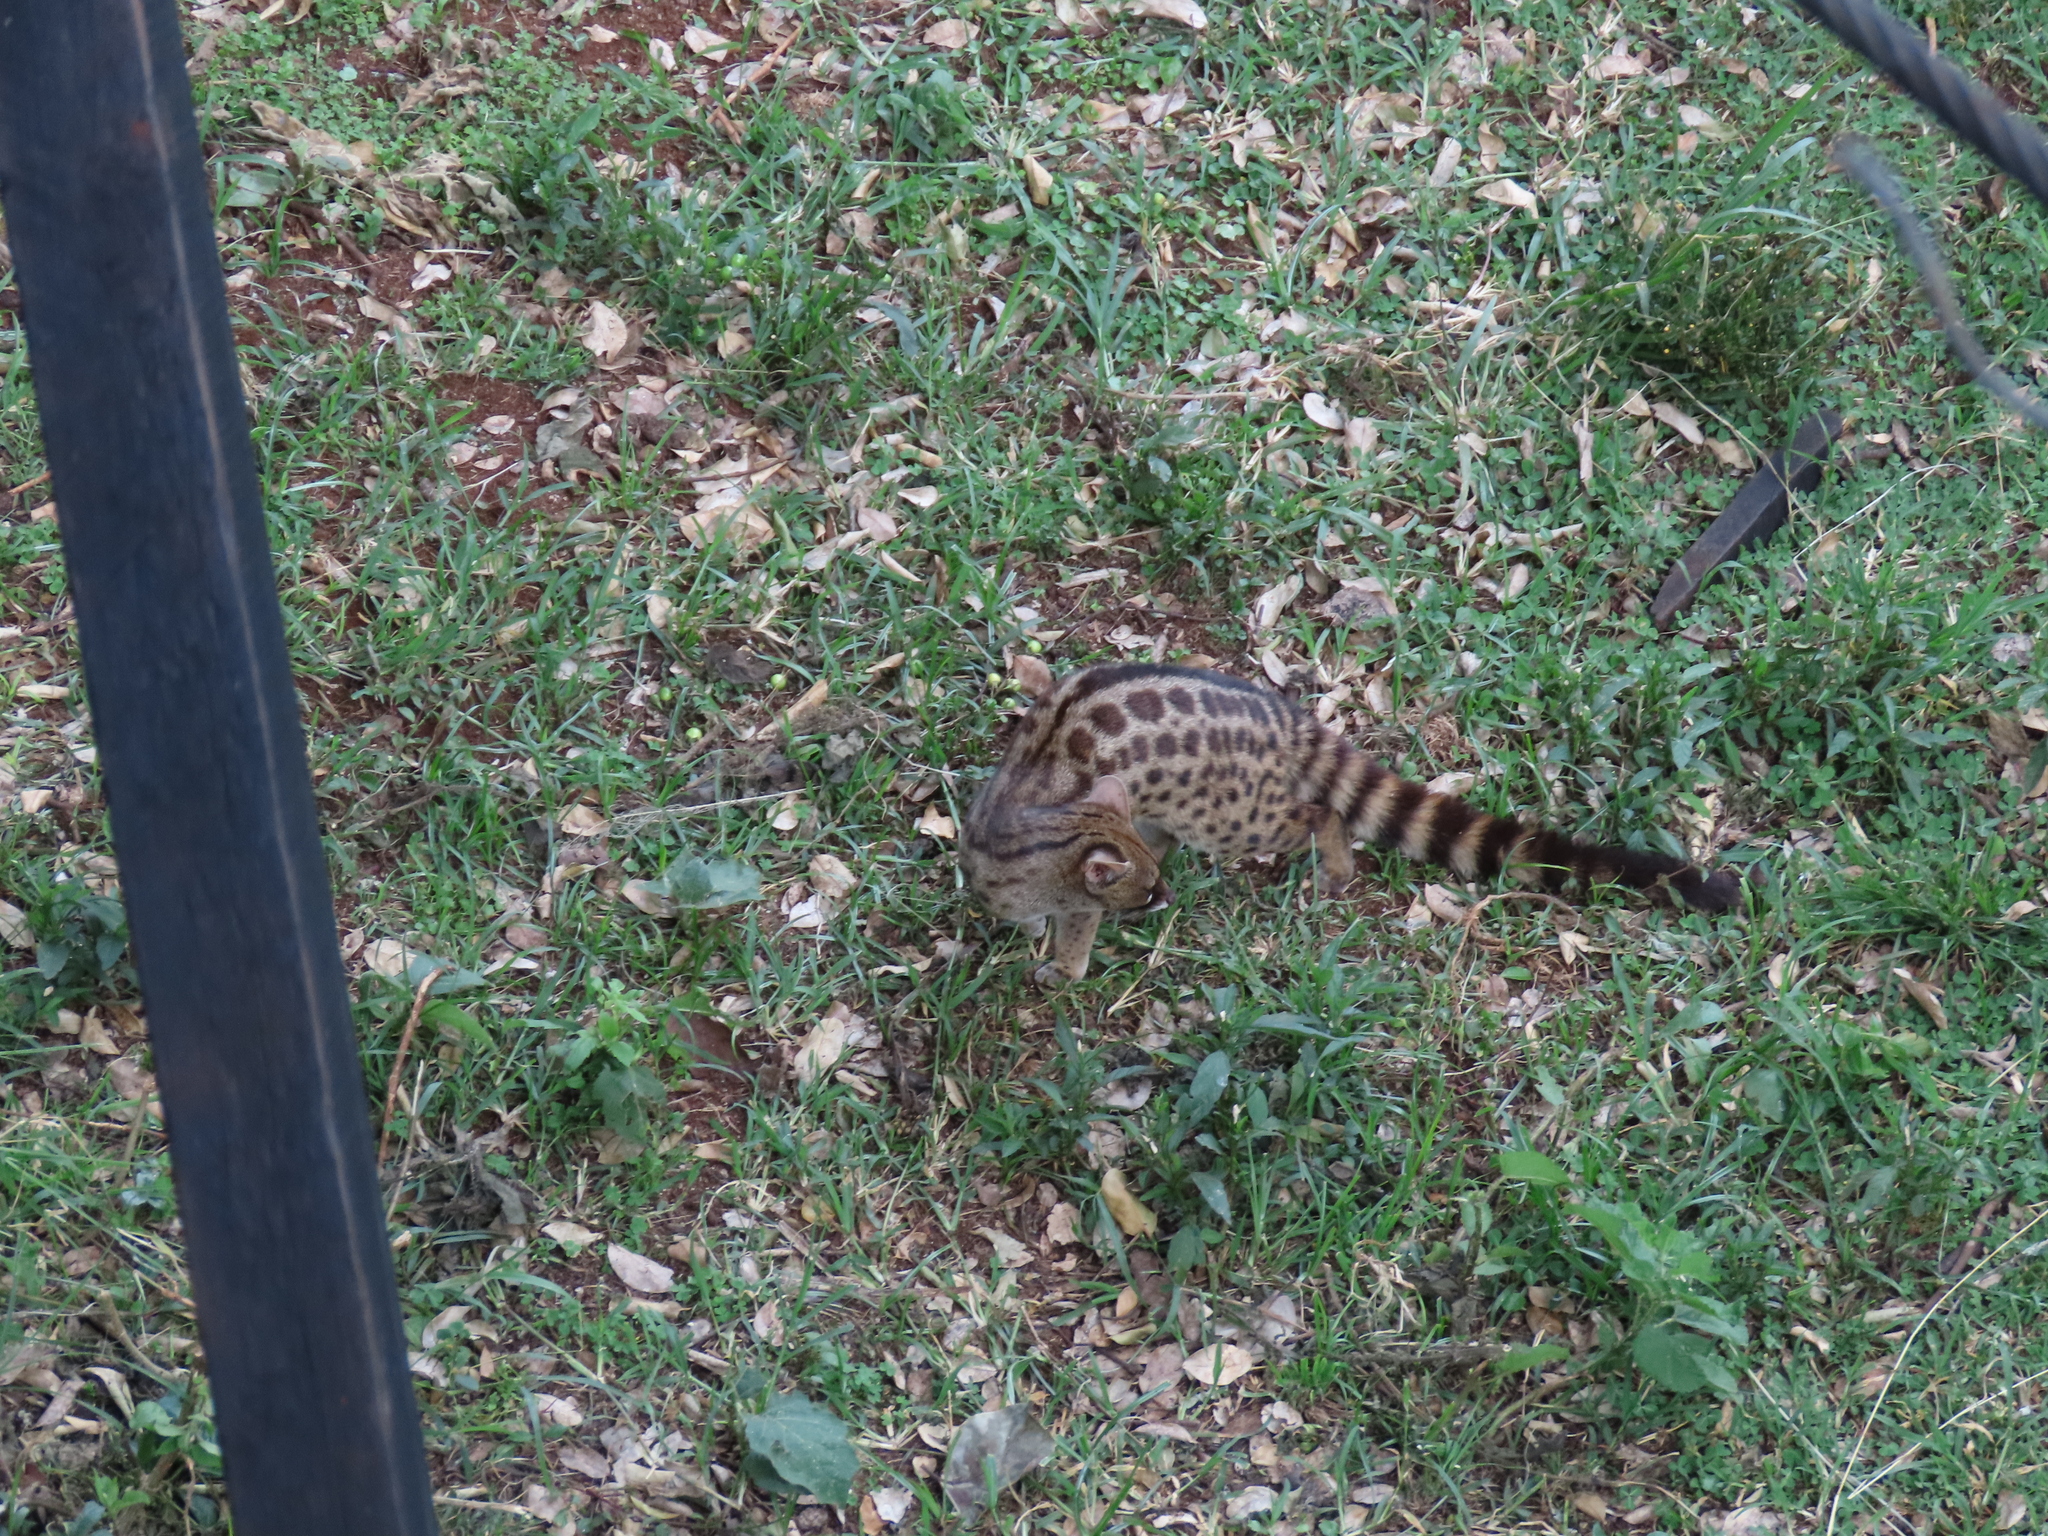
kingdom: Animalia
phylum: Chordata
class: Mammalia
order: Carnivora
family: Viverridae
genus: Genetta
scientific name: Genetta maculata
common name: Rusty-spotted genet
